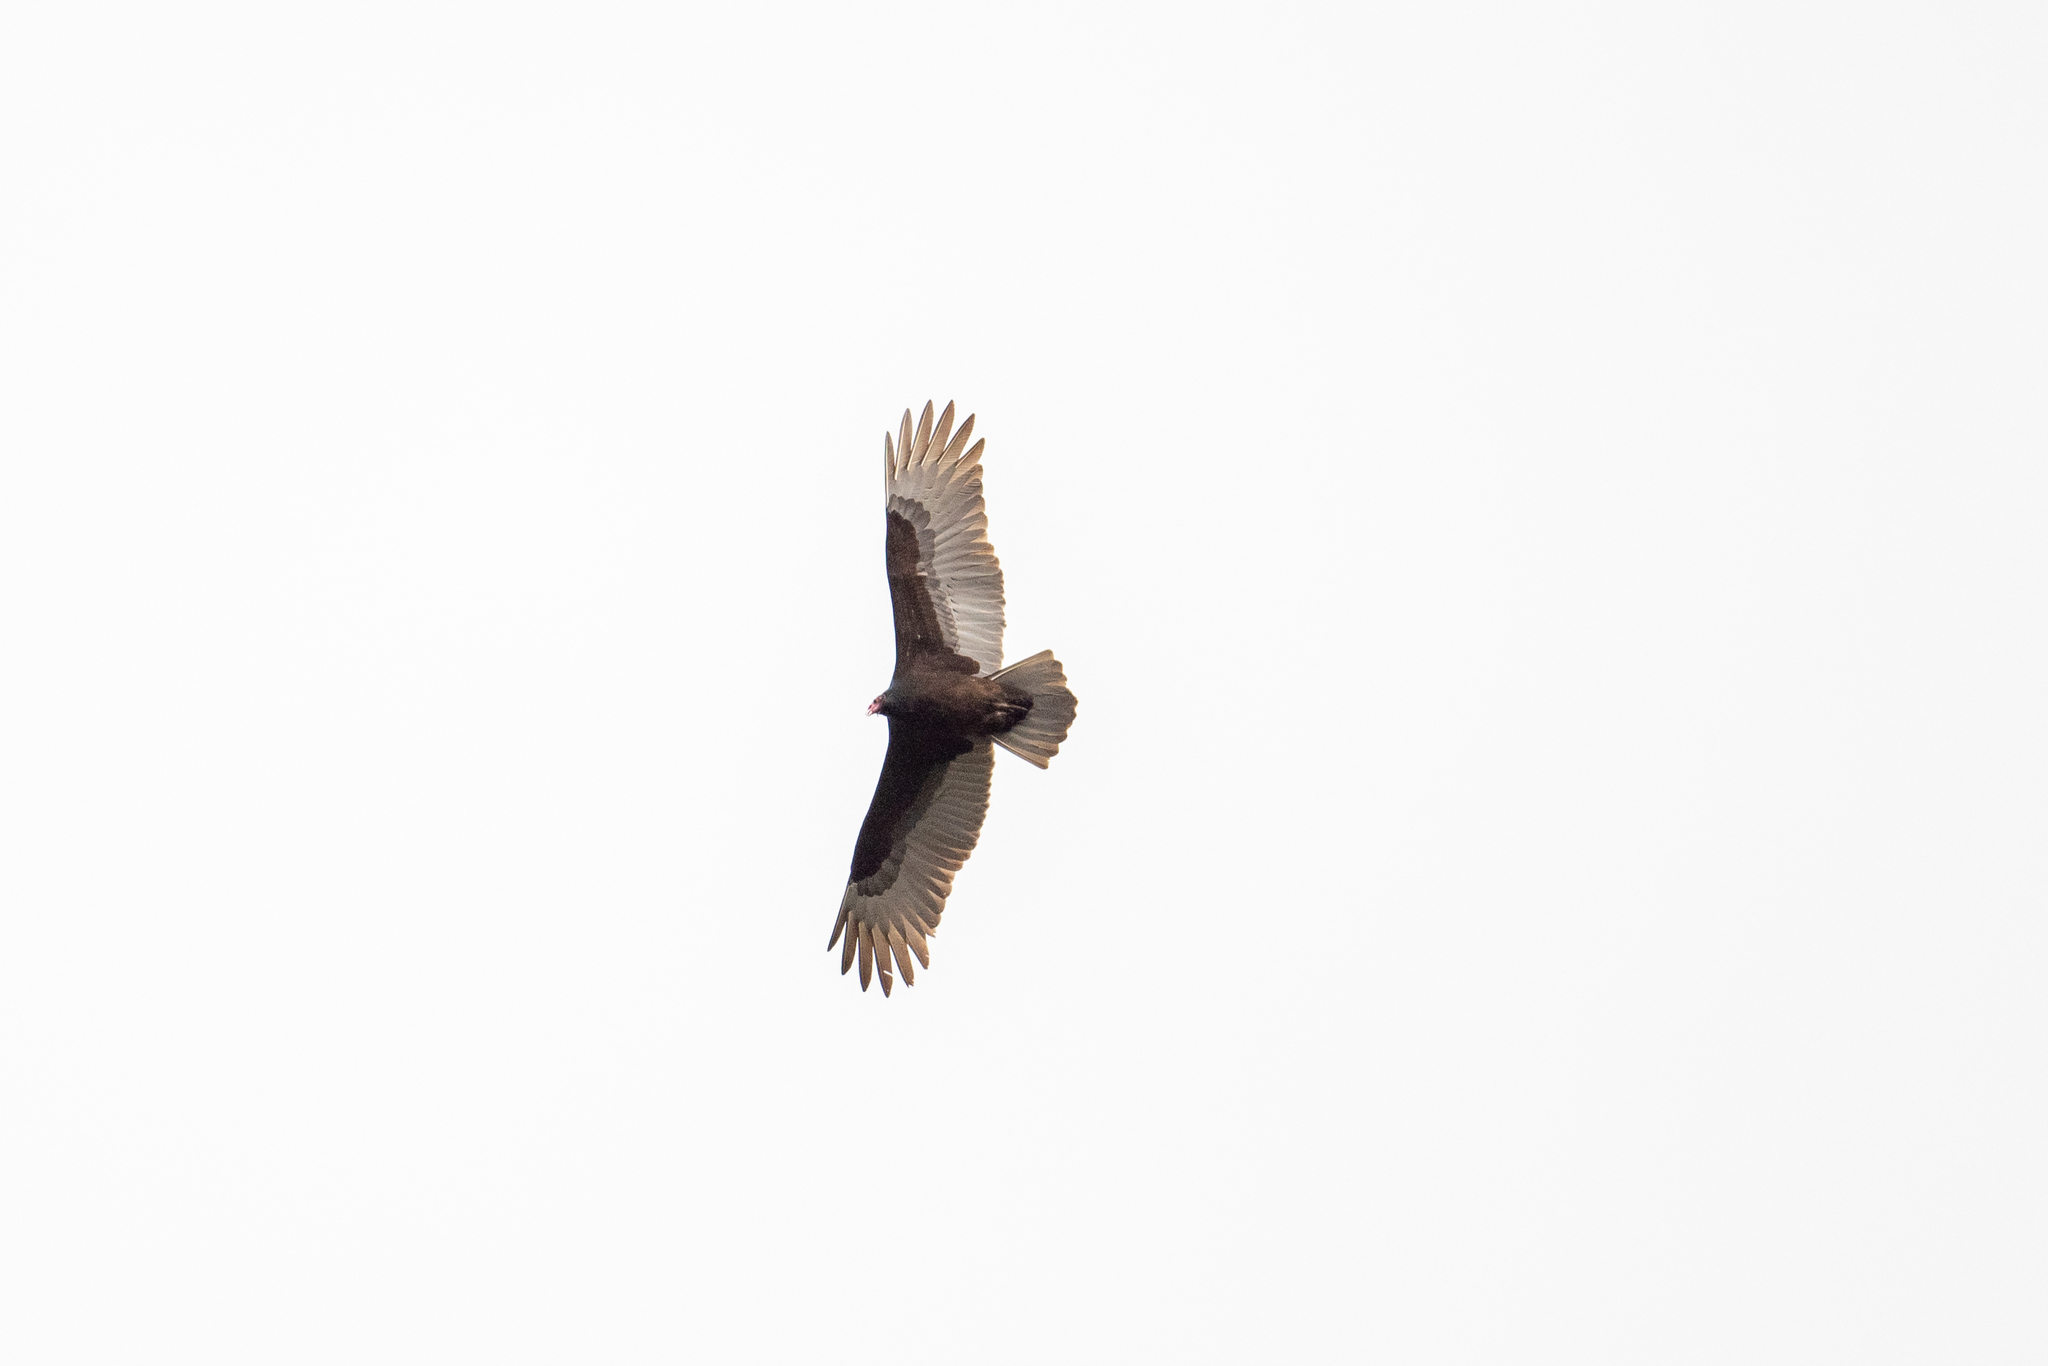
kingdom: Animalia
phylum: Chordata
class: Aves
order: Accipitriformes
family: Cathartidae
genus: Cathartes
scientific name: Cathartes aura
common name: Turkey vulture
